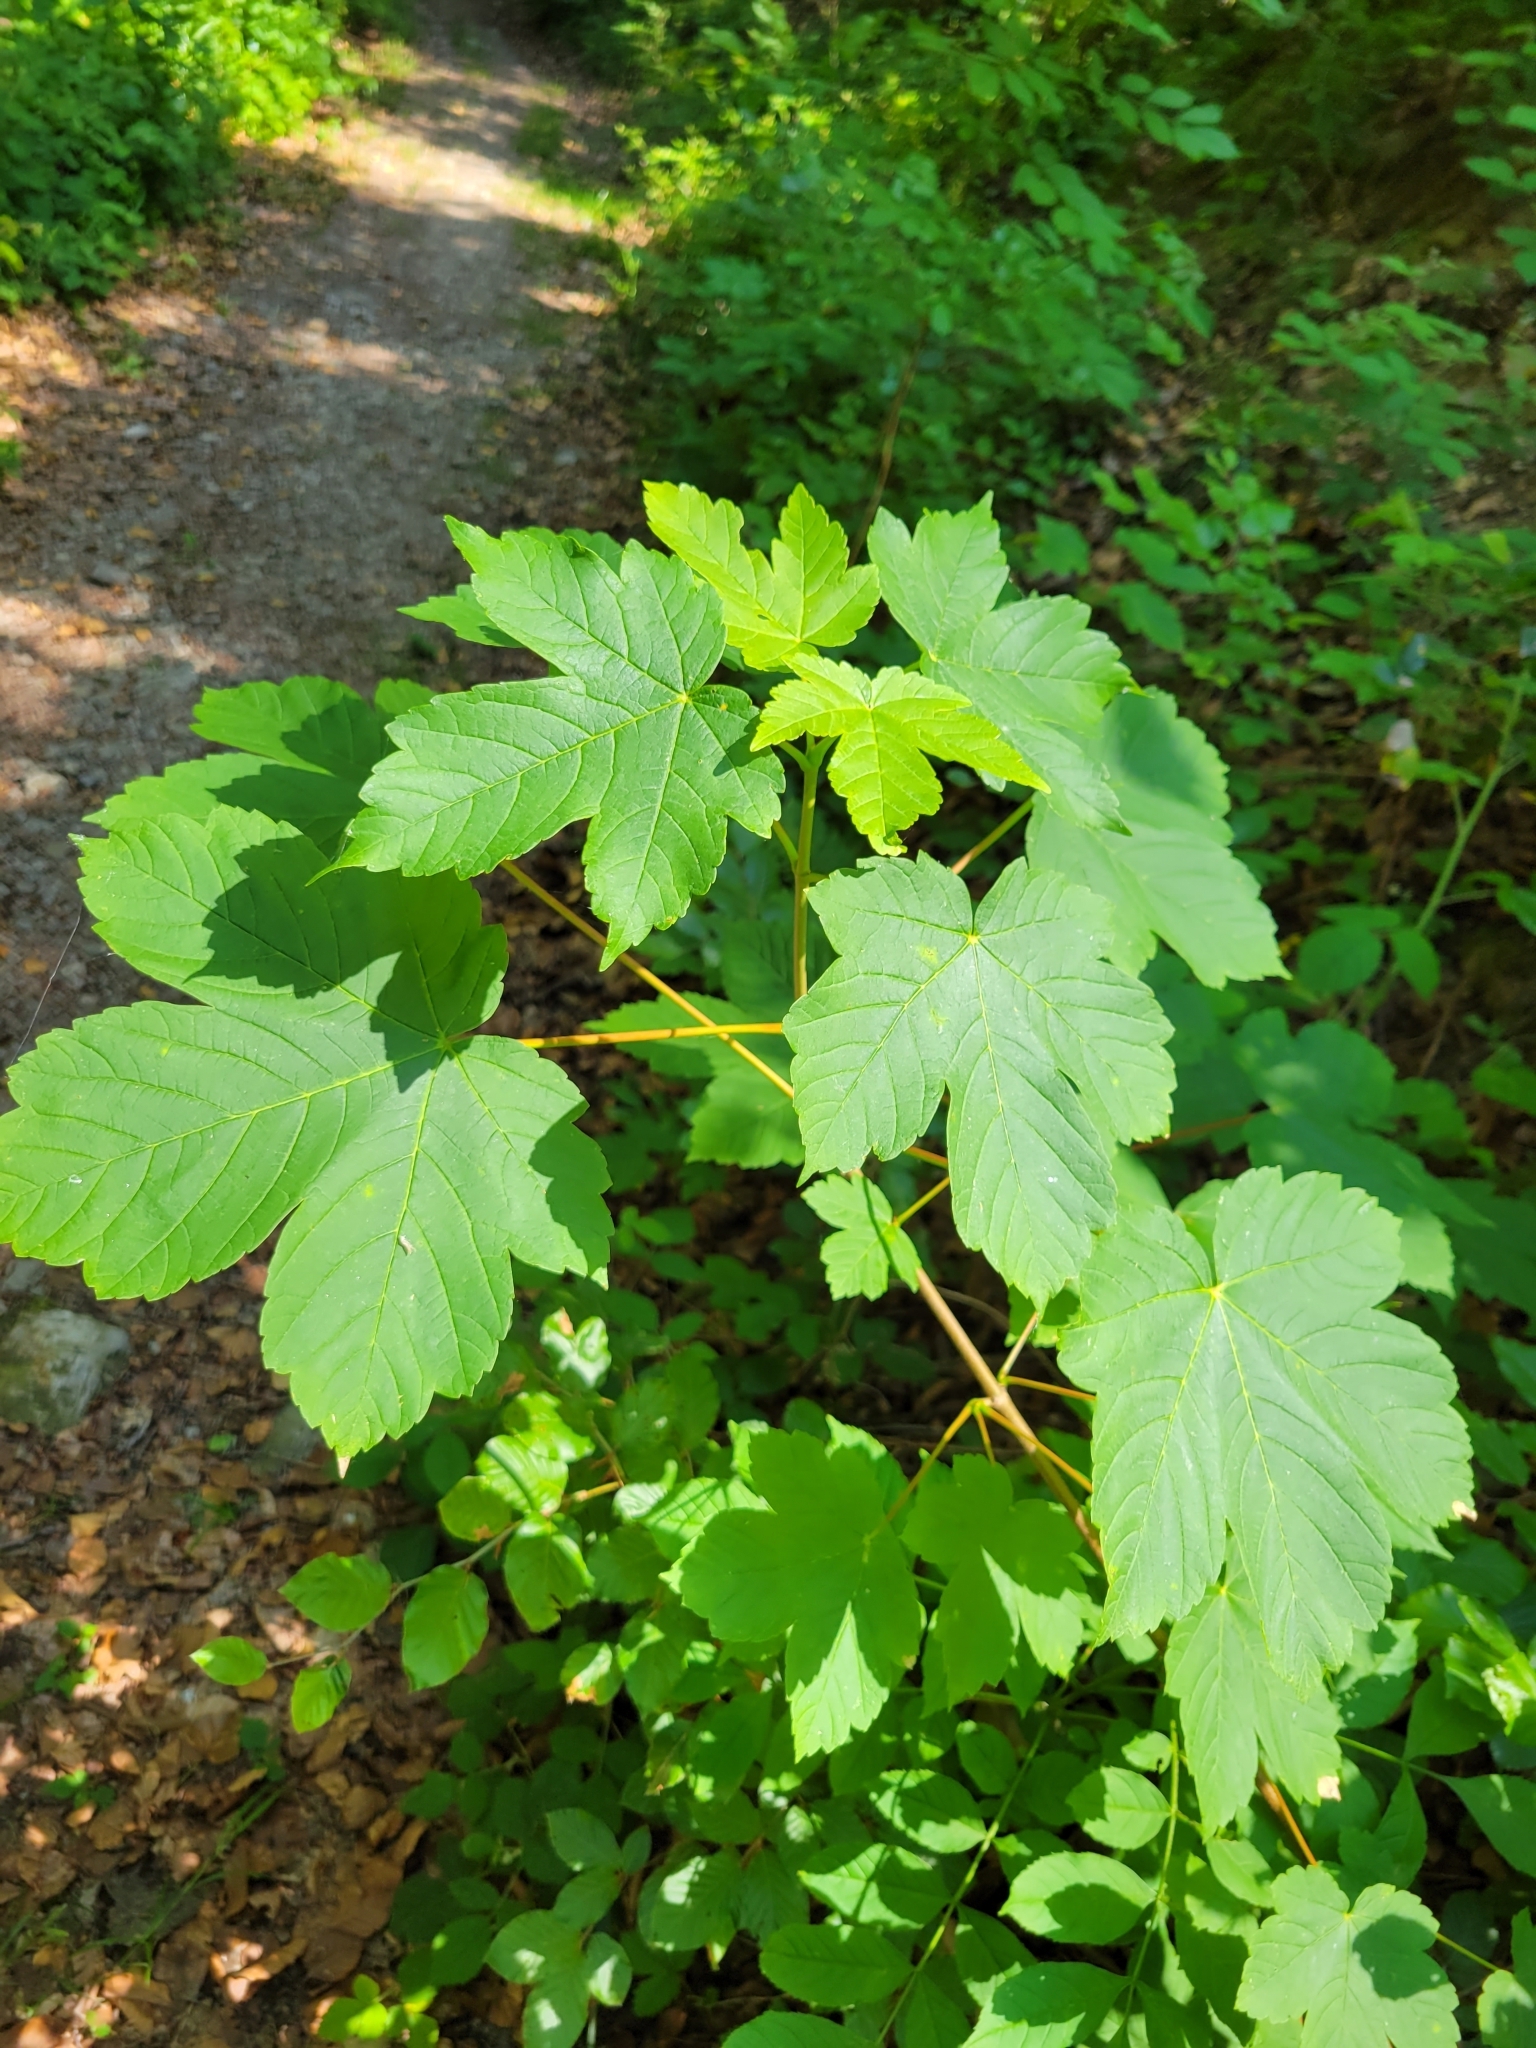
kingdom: Plantae
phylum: Tracheophyta
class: Magnoliopsida
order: Sapindales
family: Sapindaceae
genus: Acer
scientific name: Acer pseudoplatanus
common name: Sycamore
